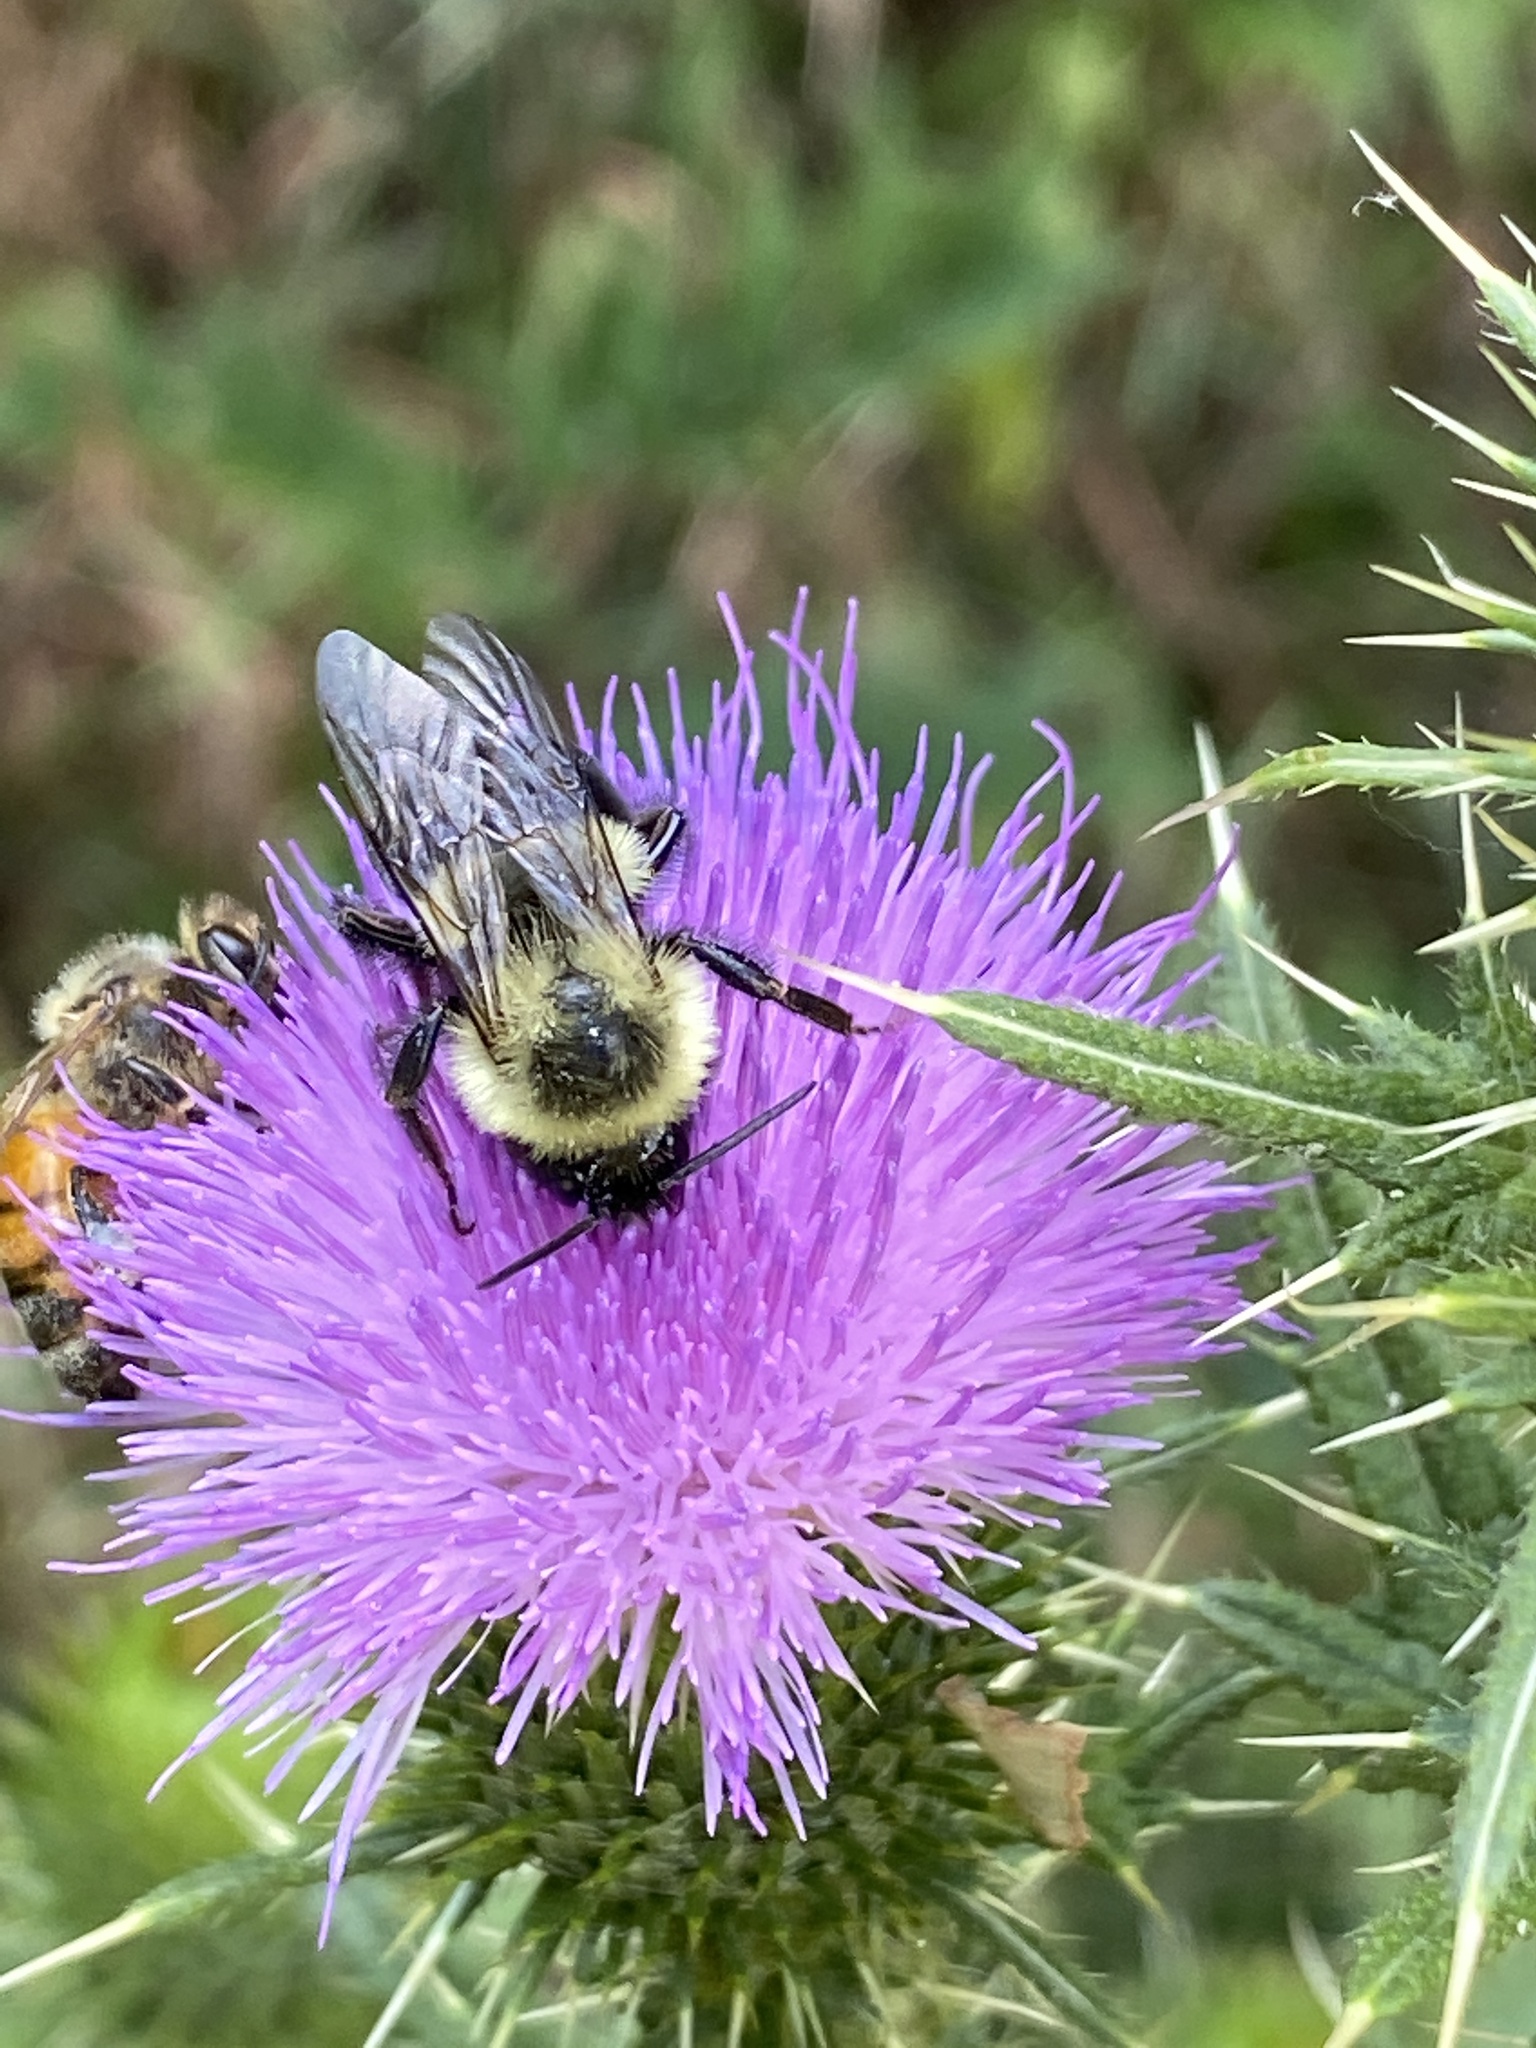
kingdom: Animalia
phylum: Arthropoda
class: Insecta
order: Hymenoptera
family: Apidae
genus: Bombus
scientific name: Bombus impatiens
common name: Common eastern bumble bee
